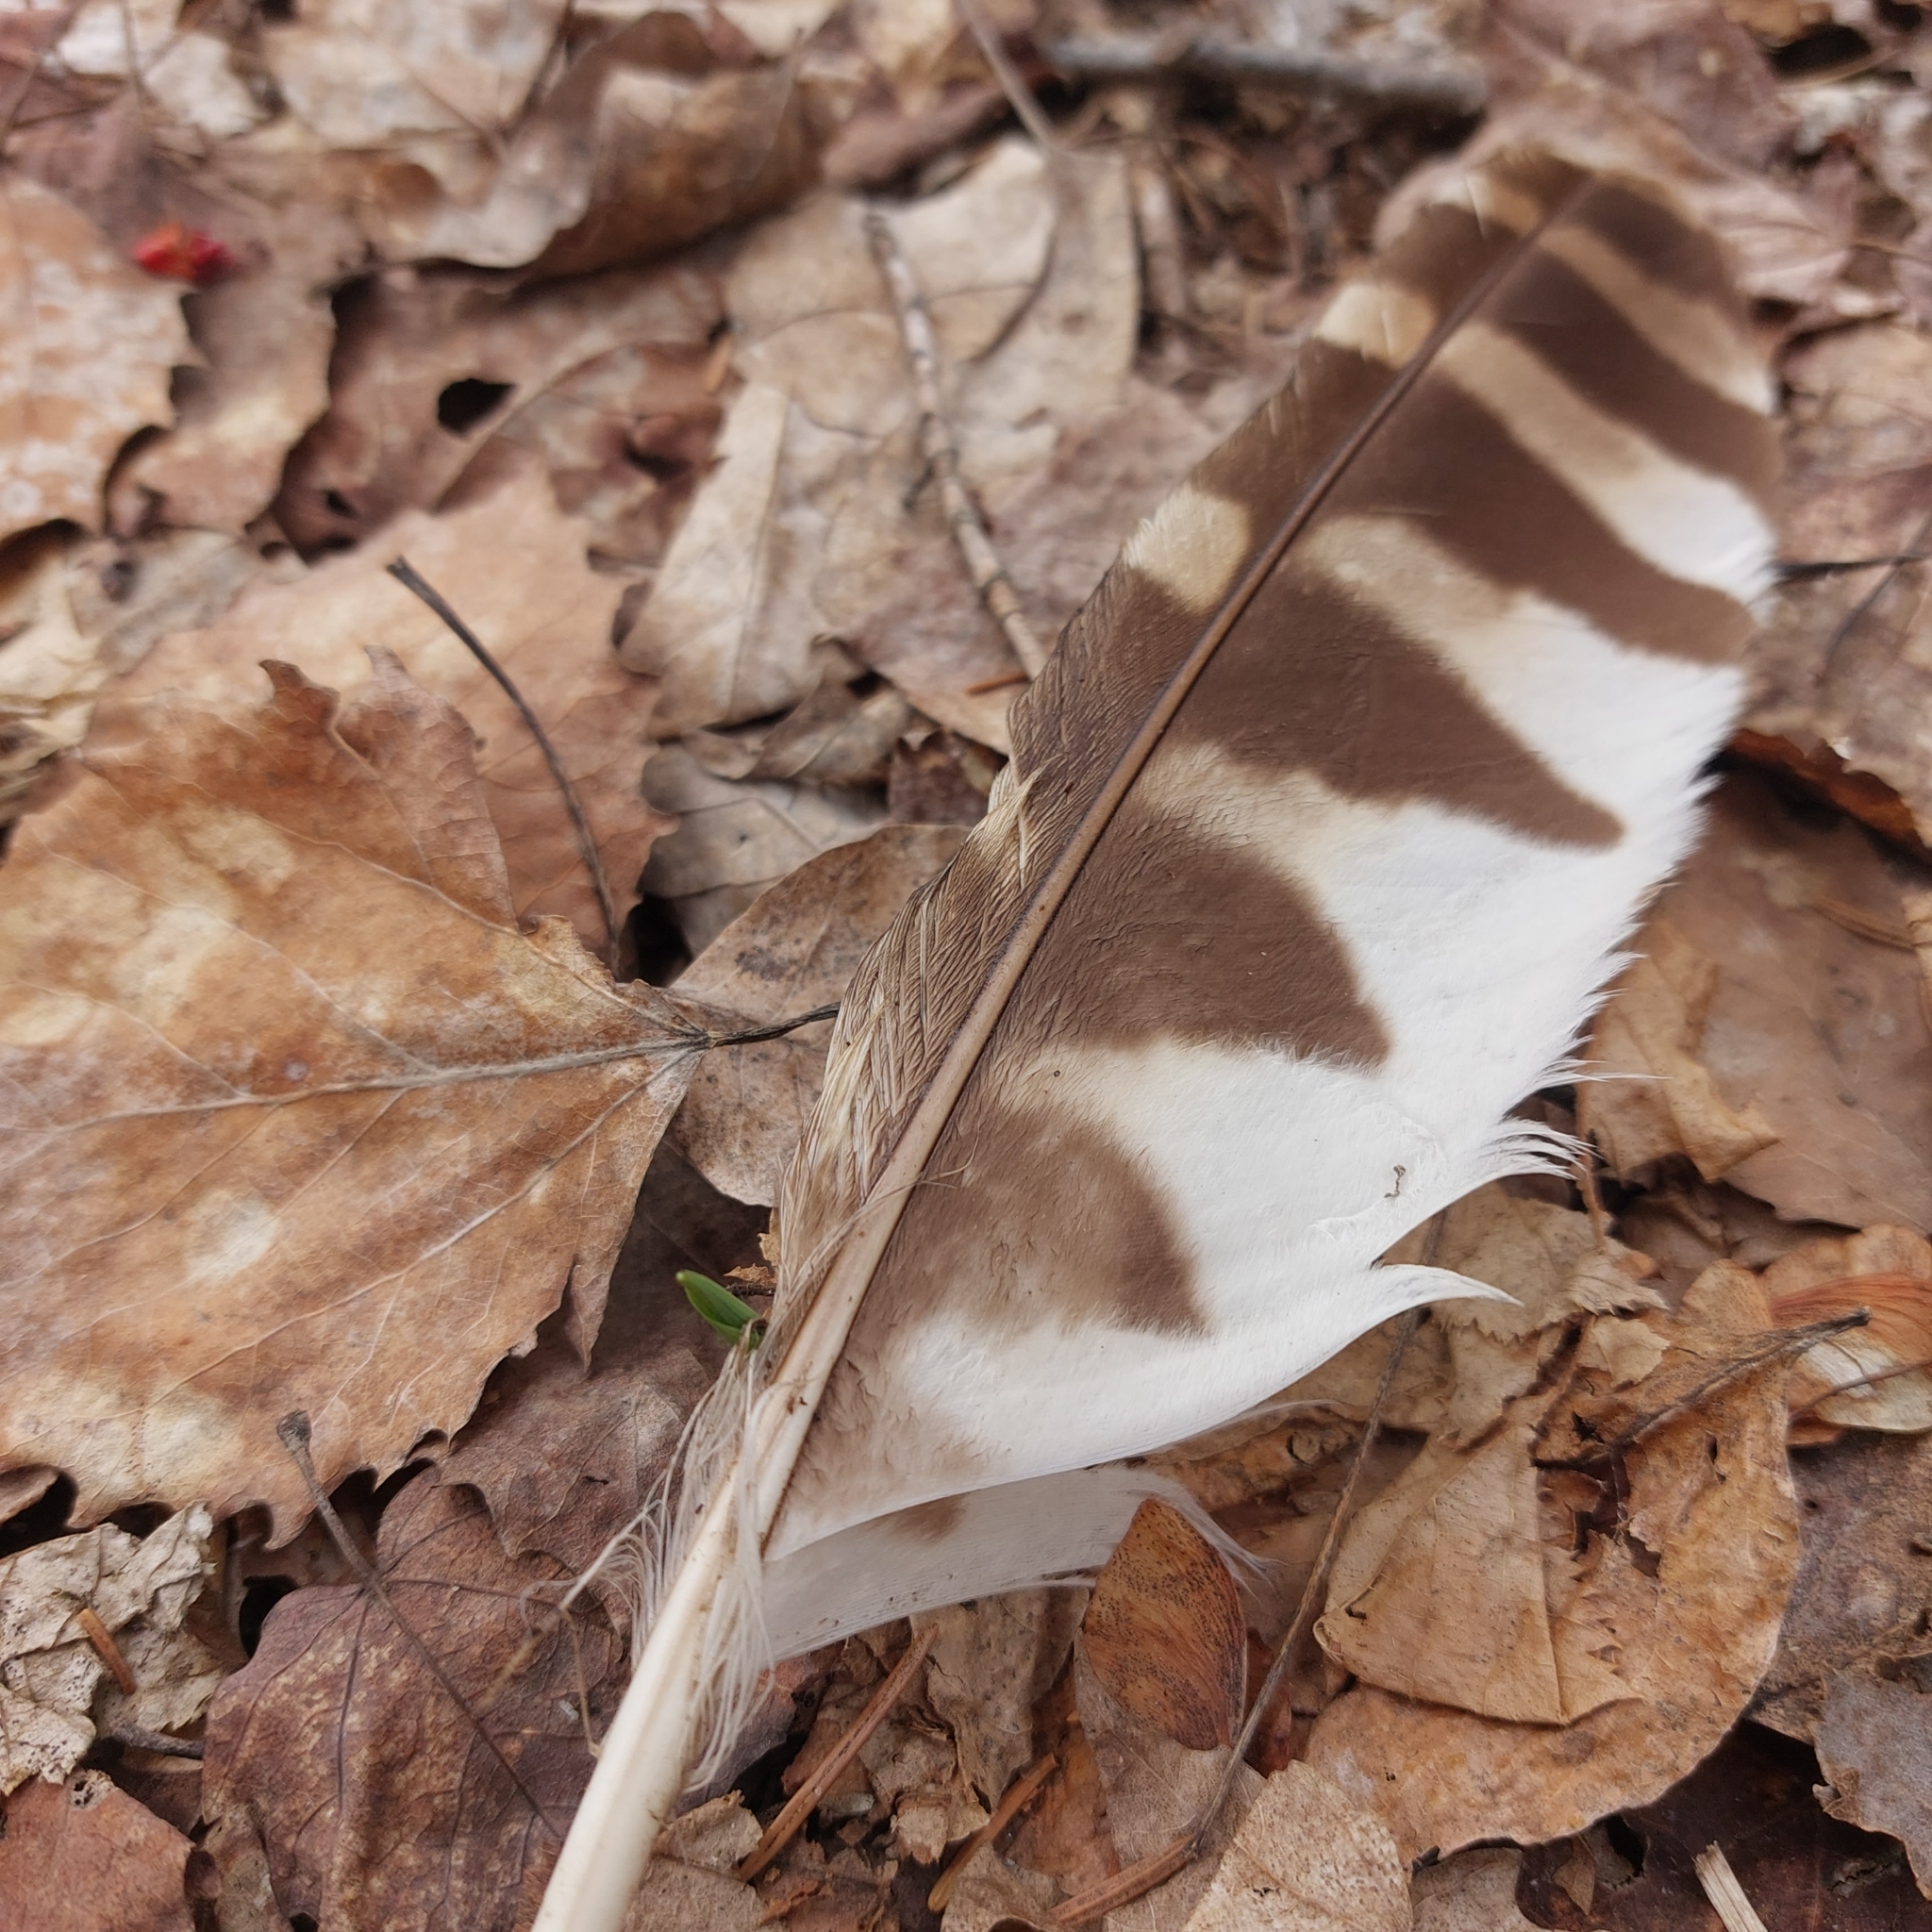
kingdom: Animalia
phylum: Chordata
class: Aves
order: Strigiformes
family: Strigidae
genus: Strix
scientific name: Strix varia
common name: Barred owl
